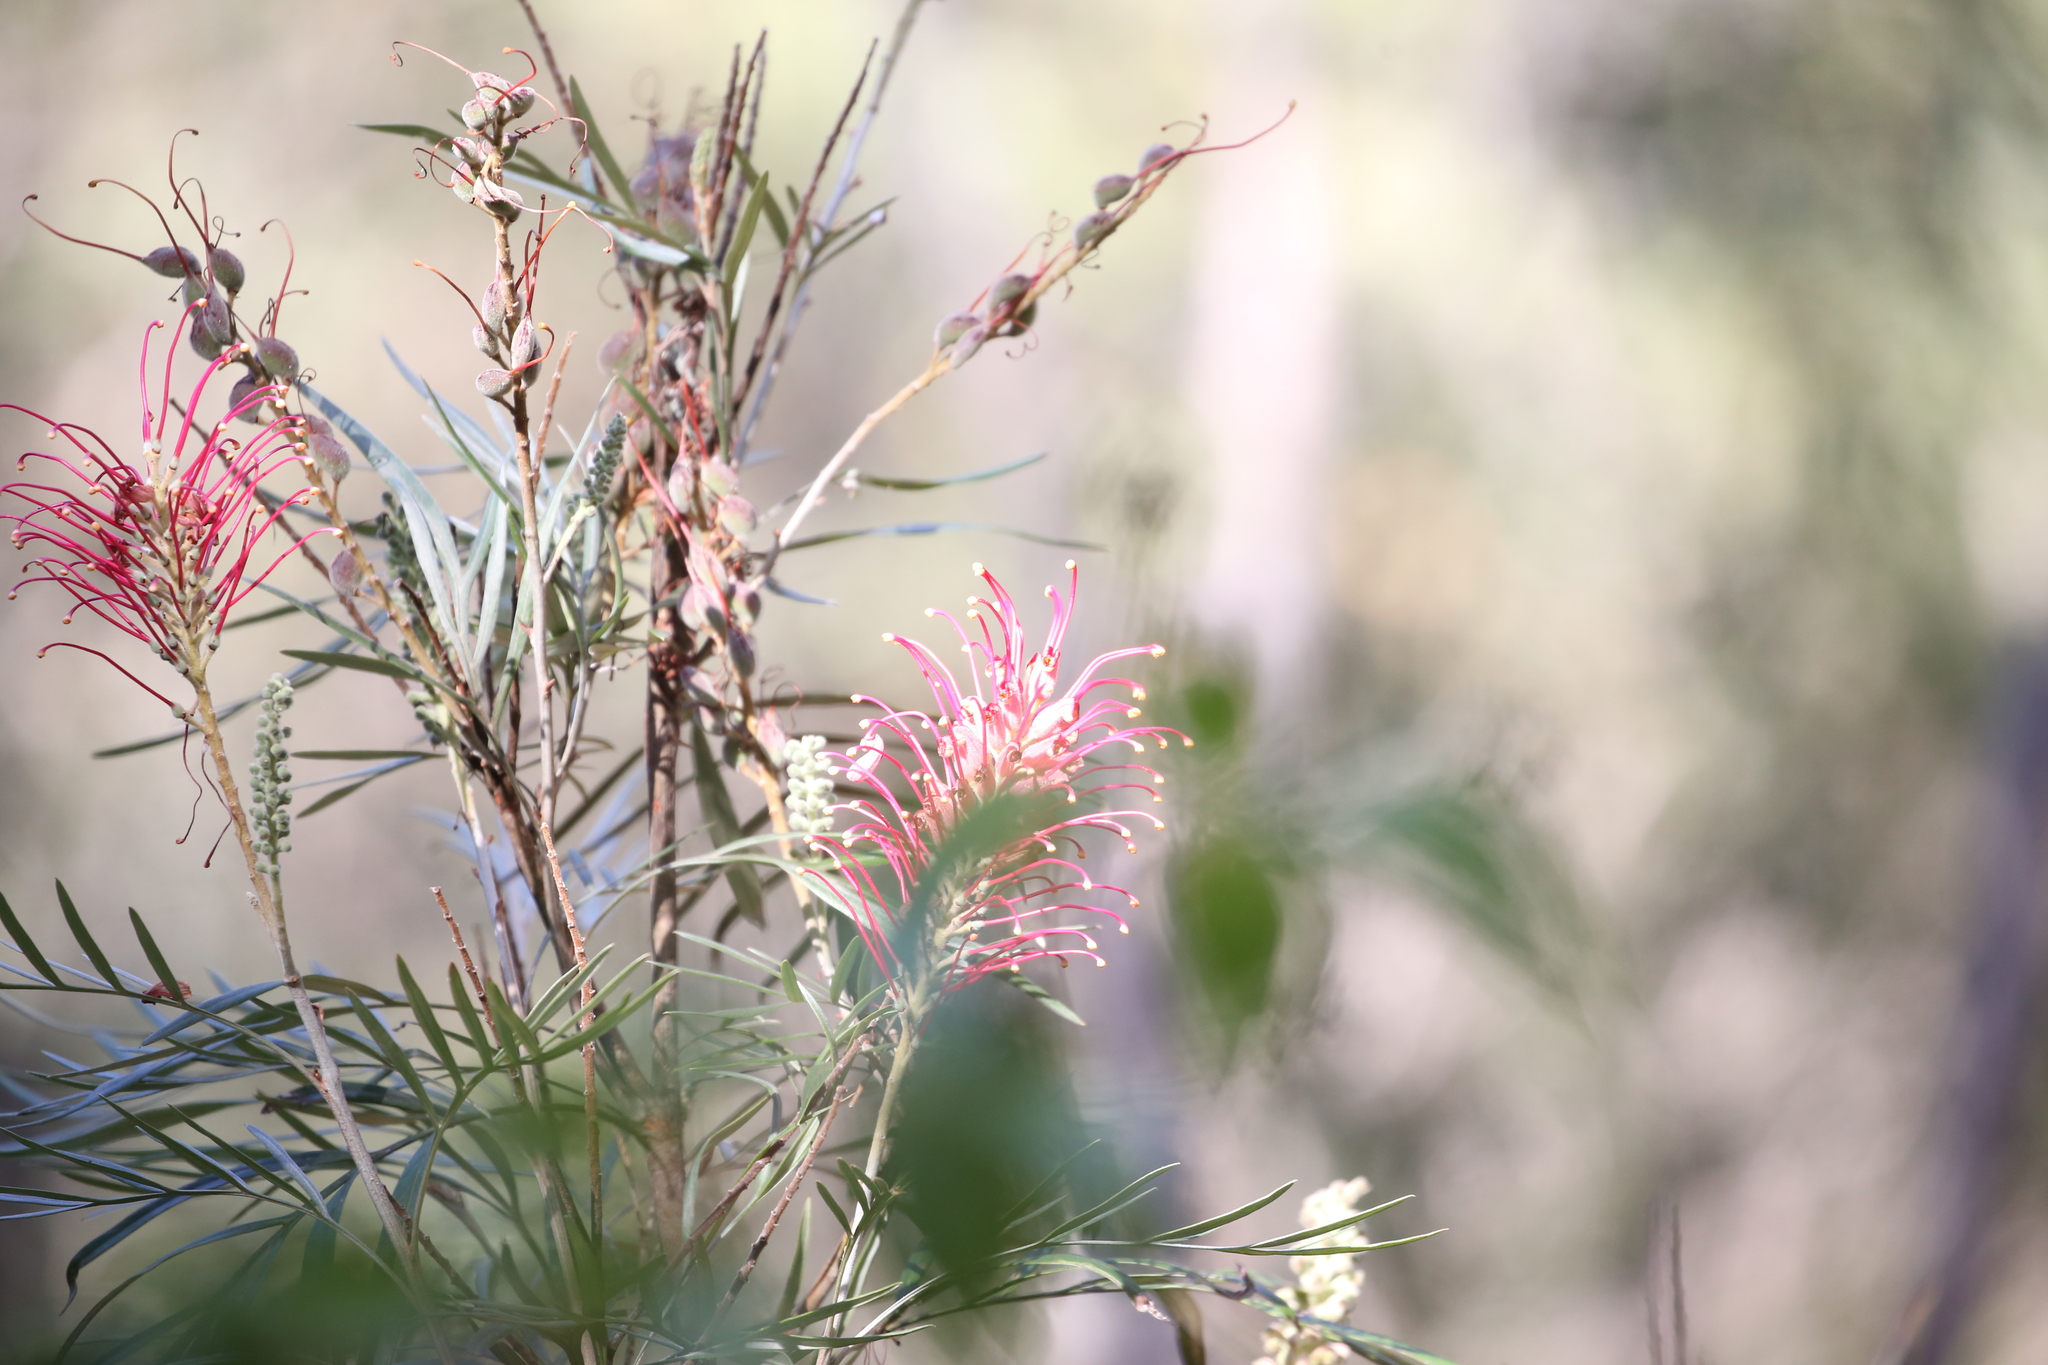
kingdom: Plantae
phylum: Tracheophyta
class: Magnoliopsida
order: Proteales
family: Proteaceae
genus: Grevillea
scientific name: Grevillea banksii
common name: Kahili flower
